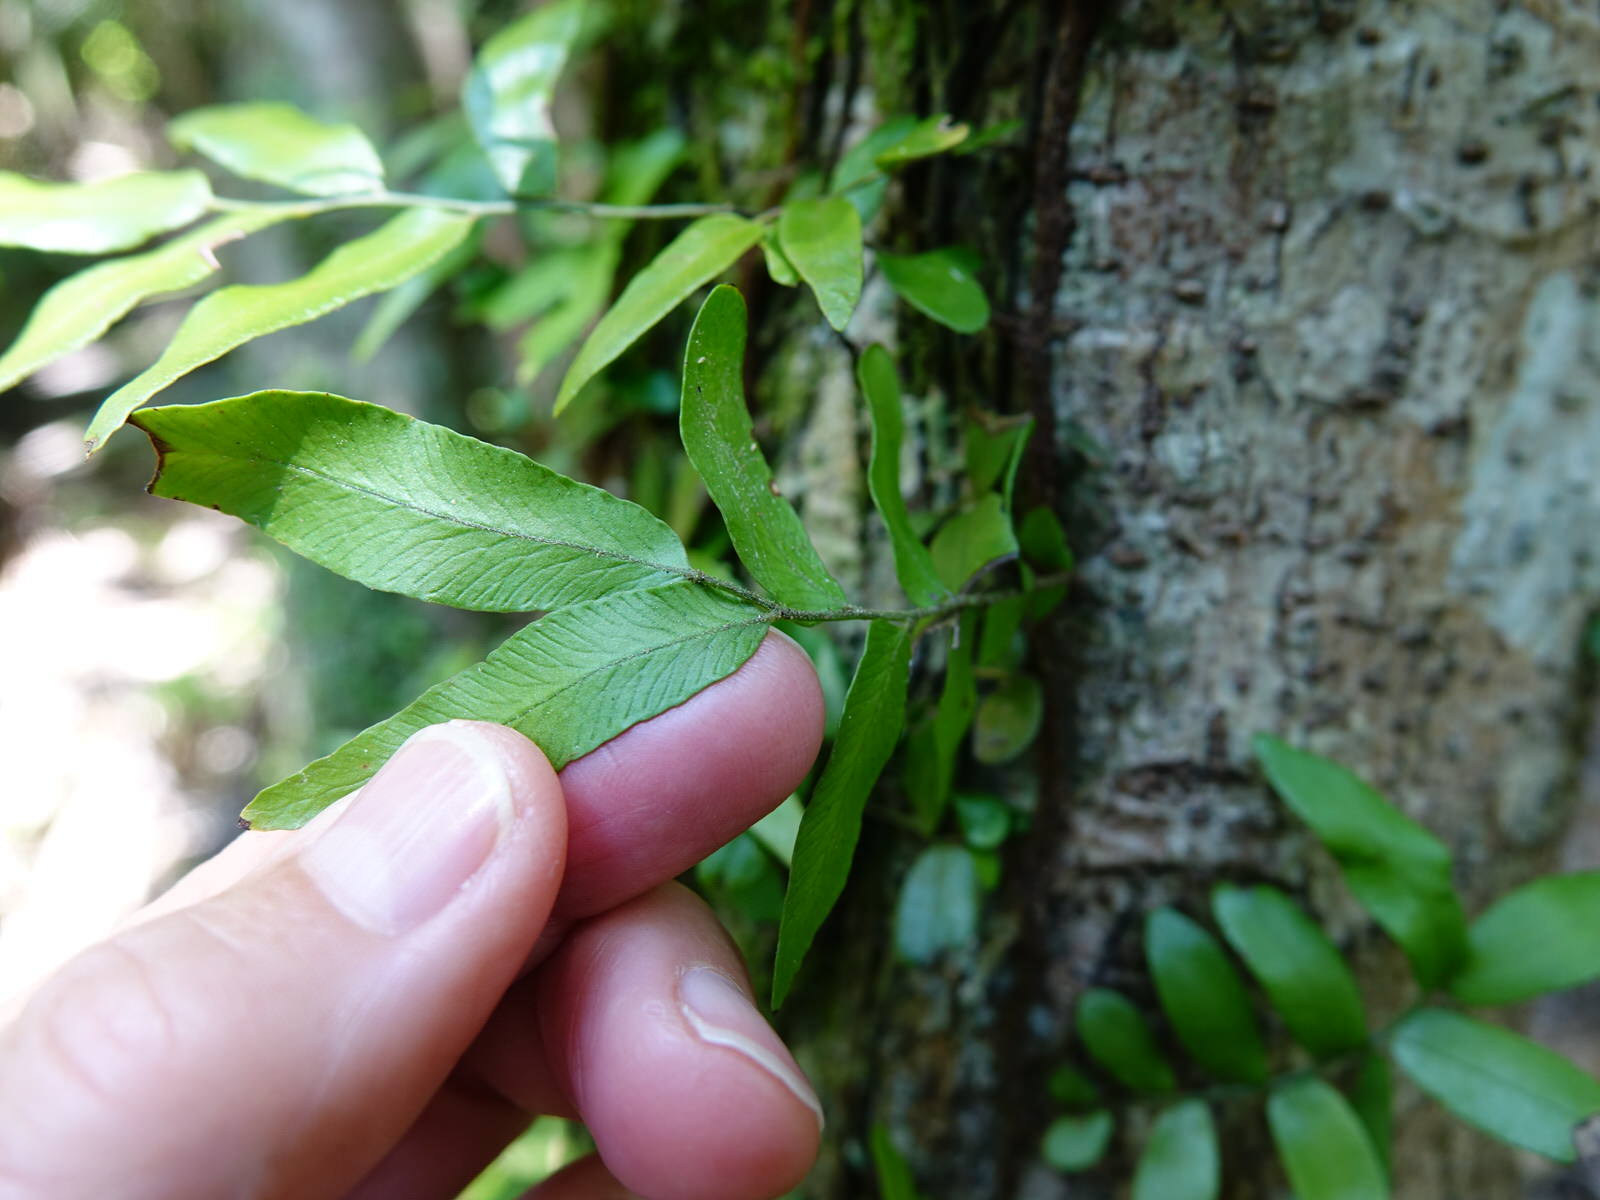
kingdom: Plantae
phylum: Tracheophyta
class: Polypodiopsida
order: Polypodiales
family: Tectariaceae
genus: Arthropteris
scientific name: Arthropteris tenella
